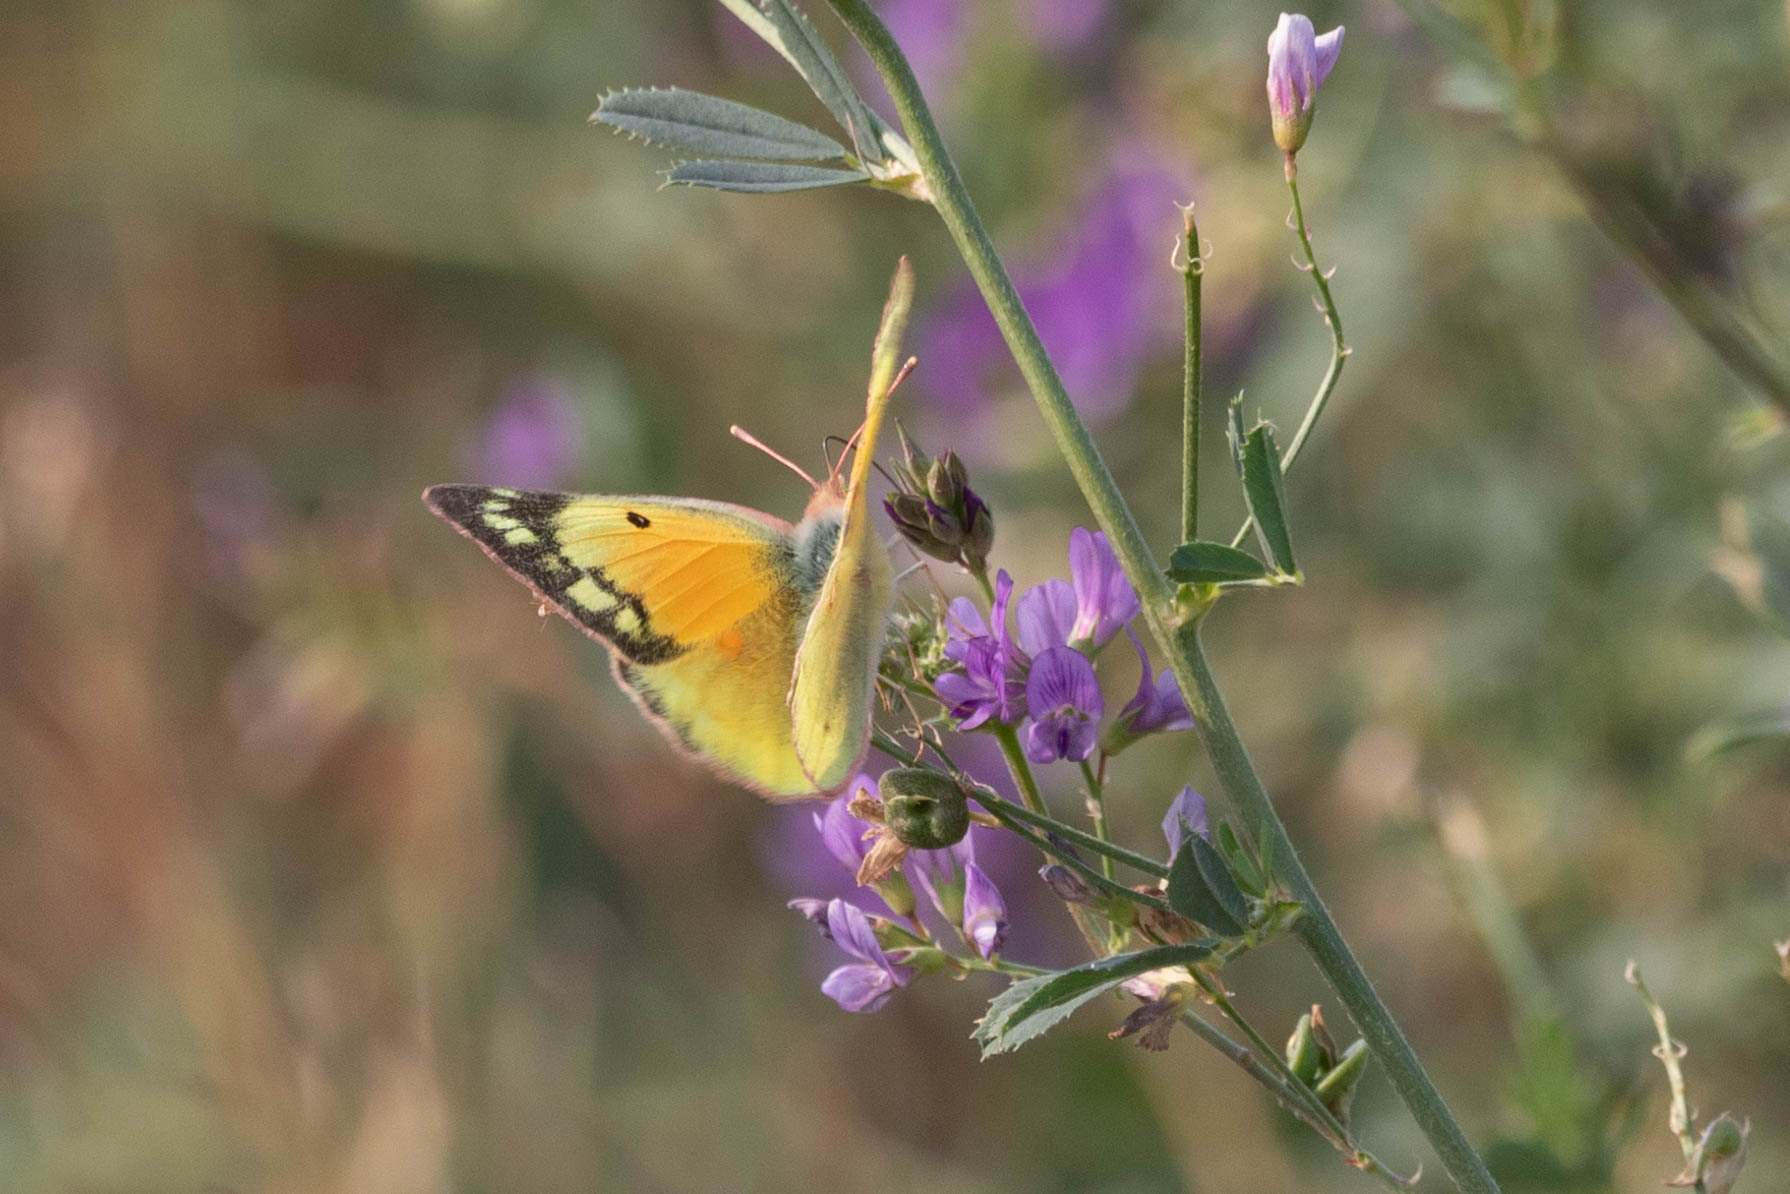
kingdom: Animalia
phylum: Arthropoda
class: Insecta
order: Lepidoptera
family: Pieridae
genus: Colias
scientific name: Colias eurytheme
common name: Alfalfa butterfly
